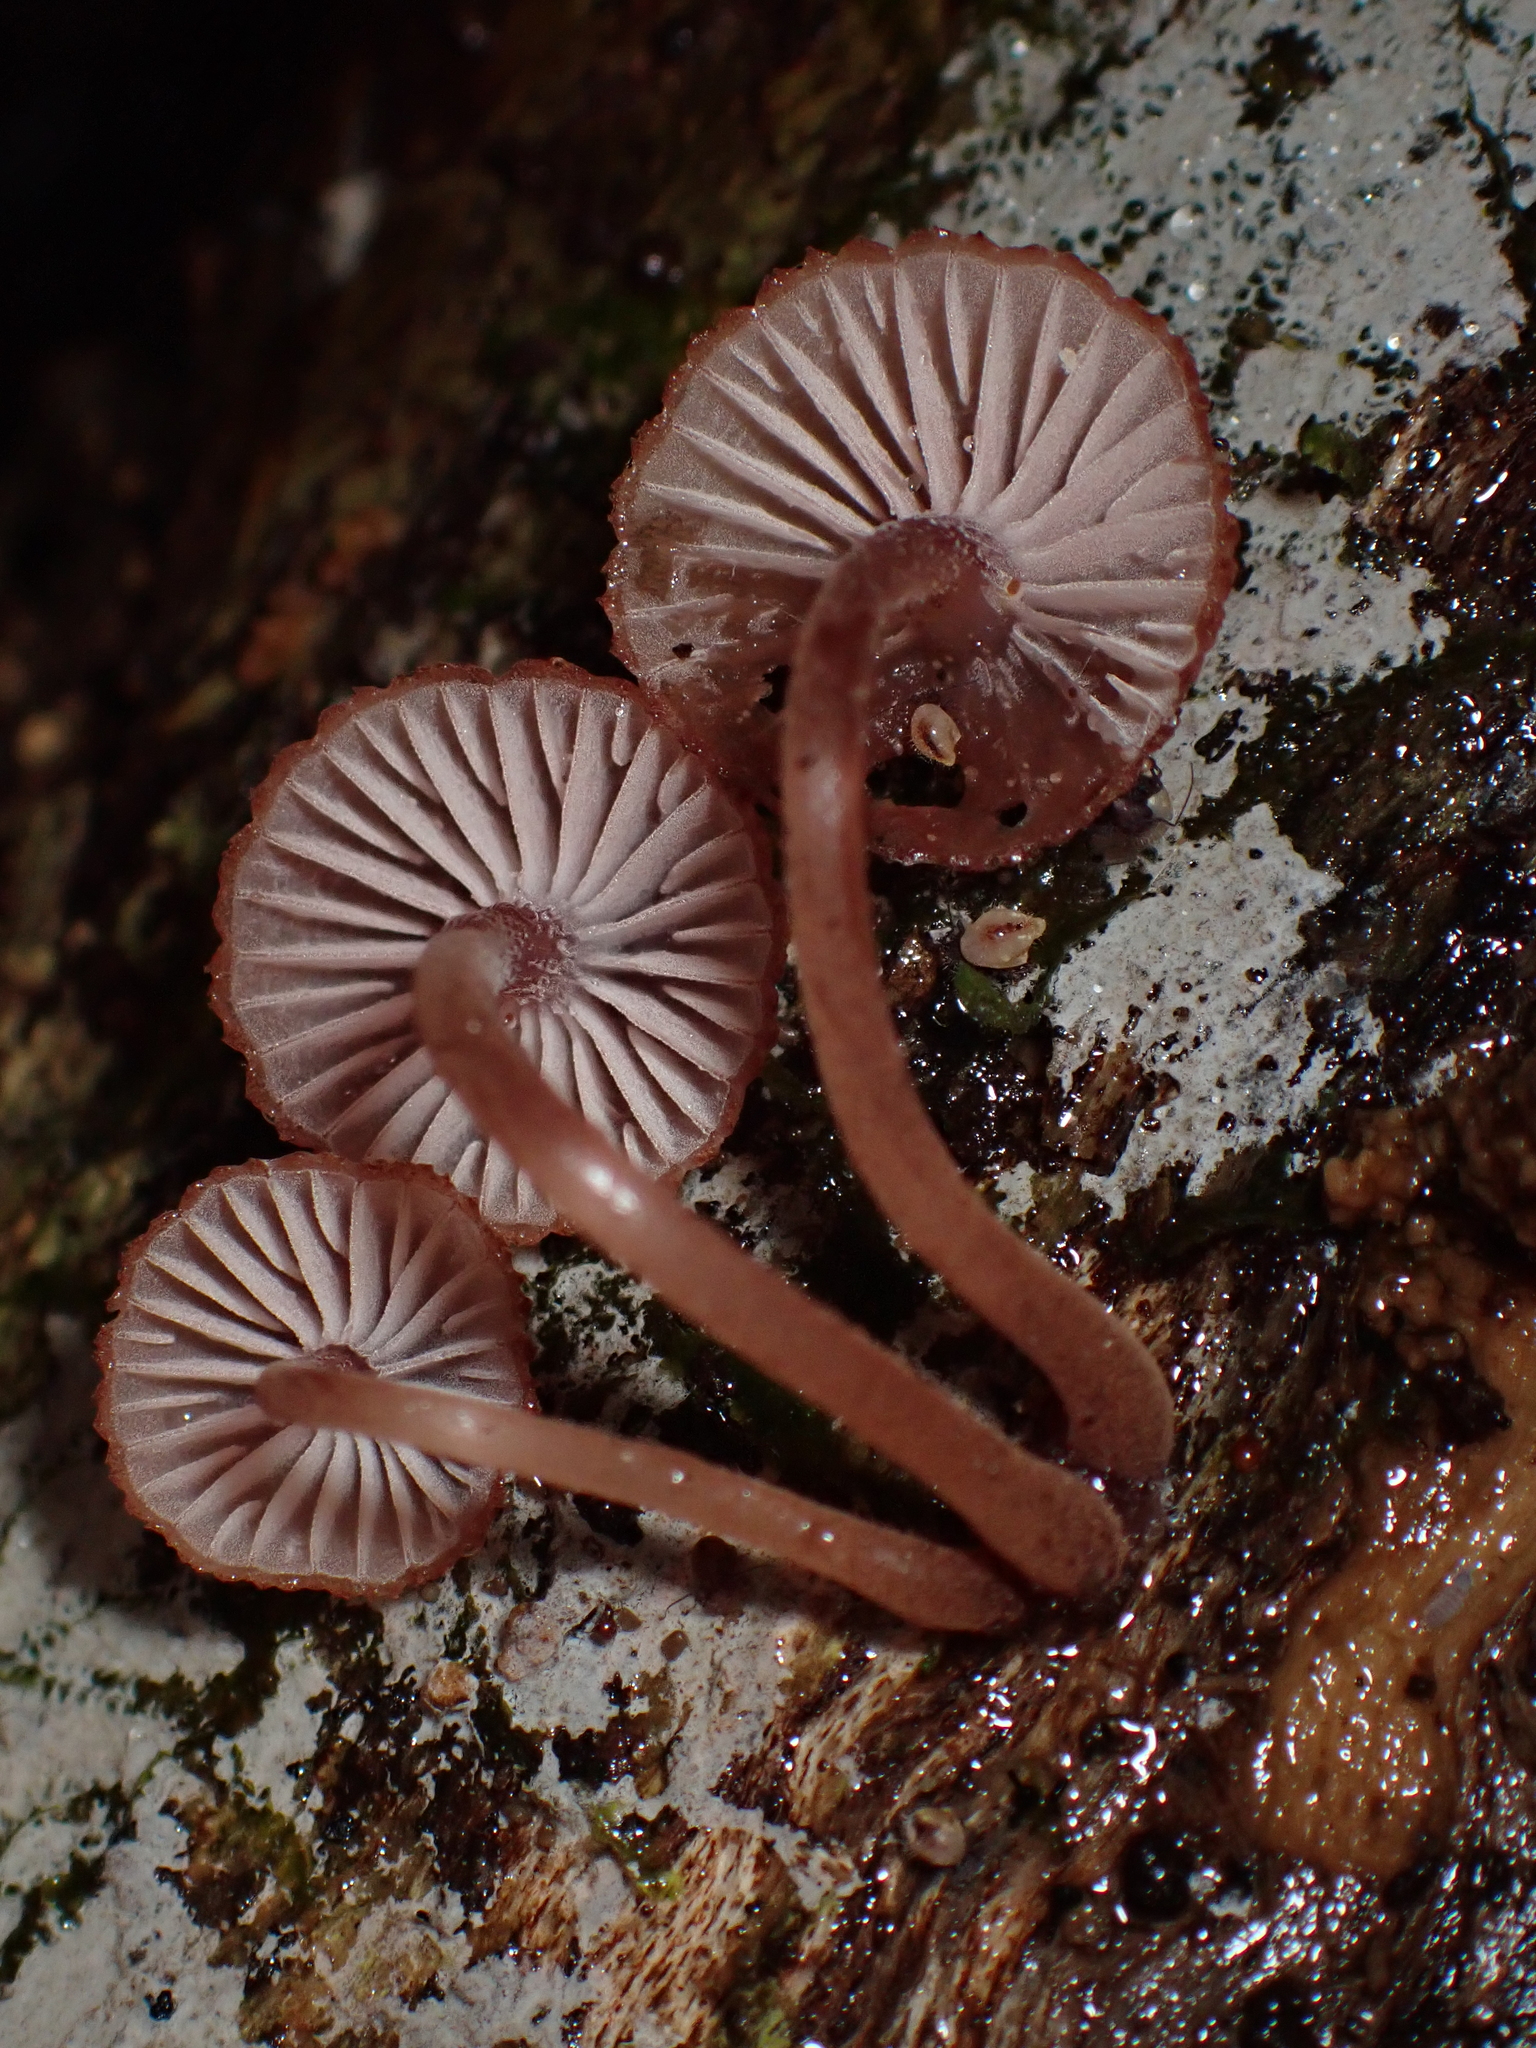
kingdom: Fungi
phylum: Basidiomycota
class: Agaricomycetes
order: Agaricales
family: Mycenaceae
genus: Mycena
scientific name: Mycena mariae
